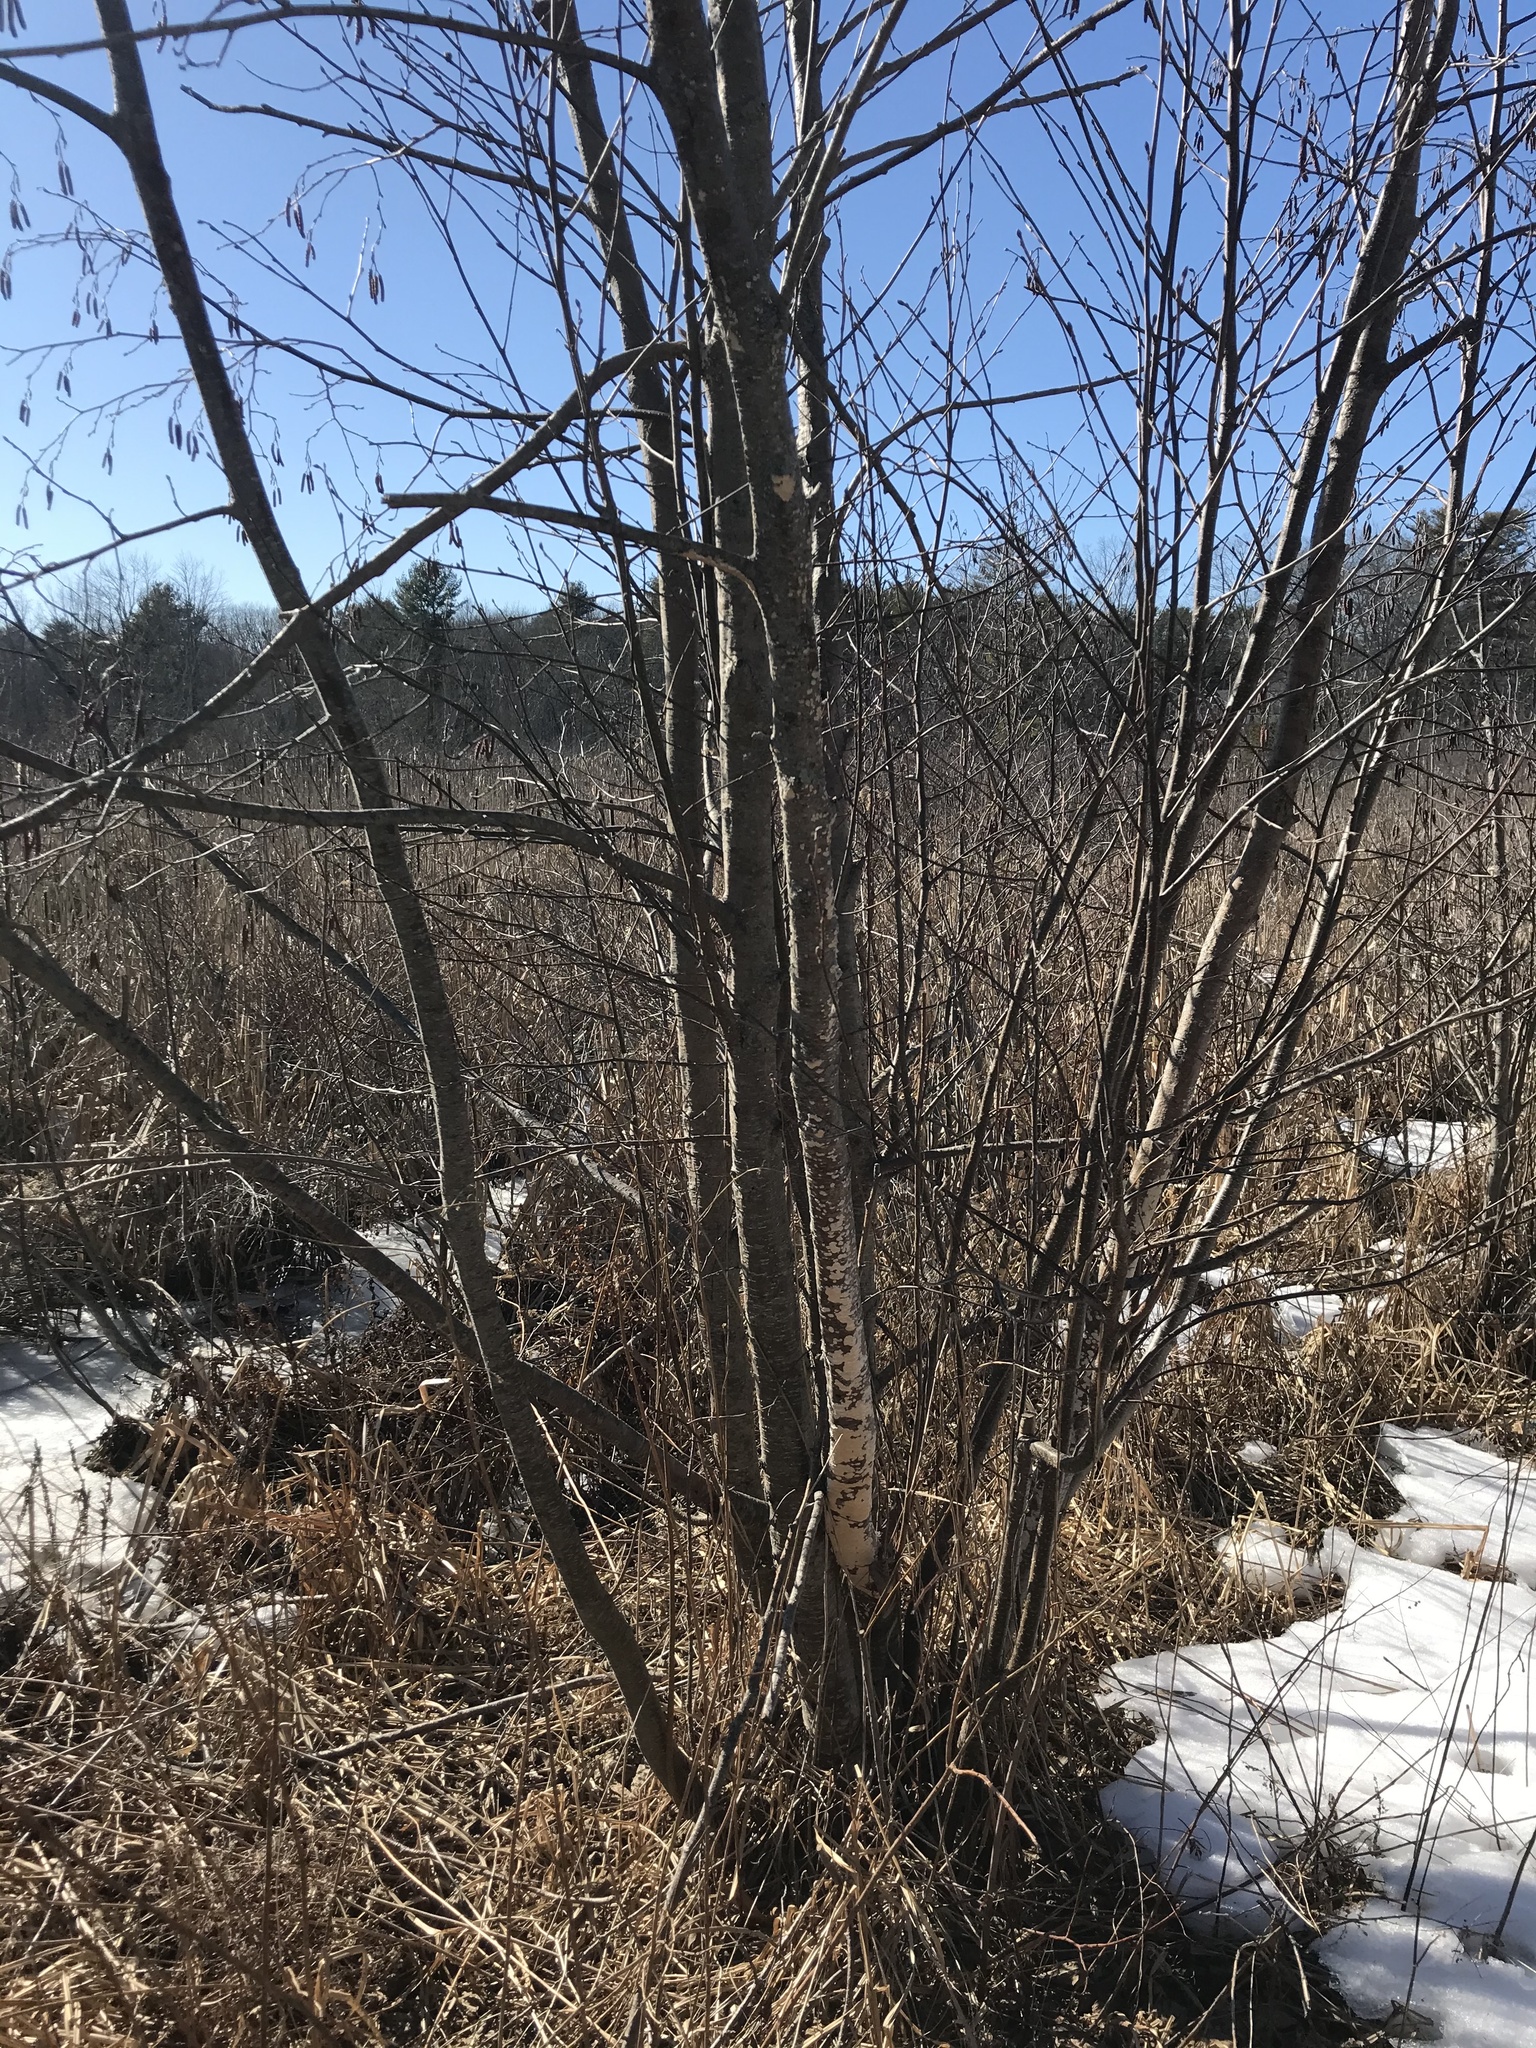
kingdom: Fungi
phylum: Basidiomycota
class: Agaricomycetes
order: Polyporales
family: Irpicaceae
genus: Irpex
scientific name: Irpex lacteus
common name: Milk-white toothed polypore
